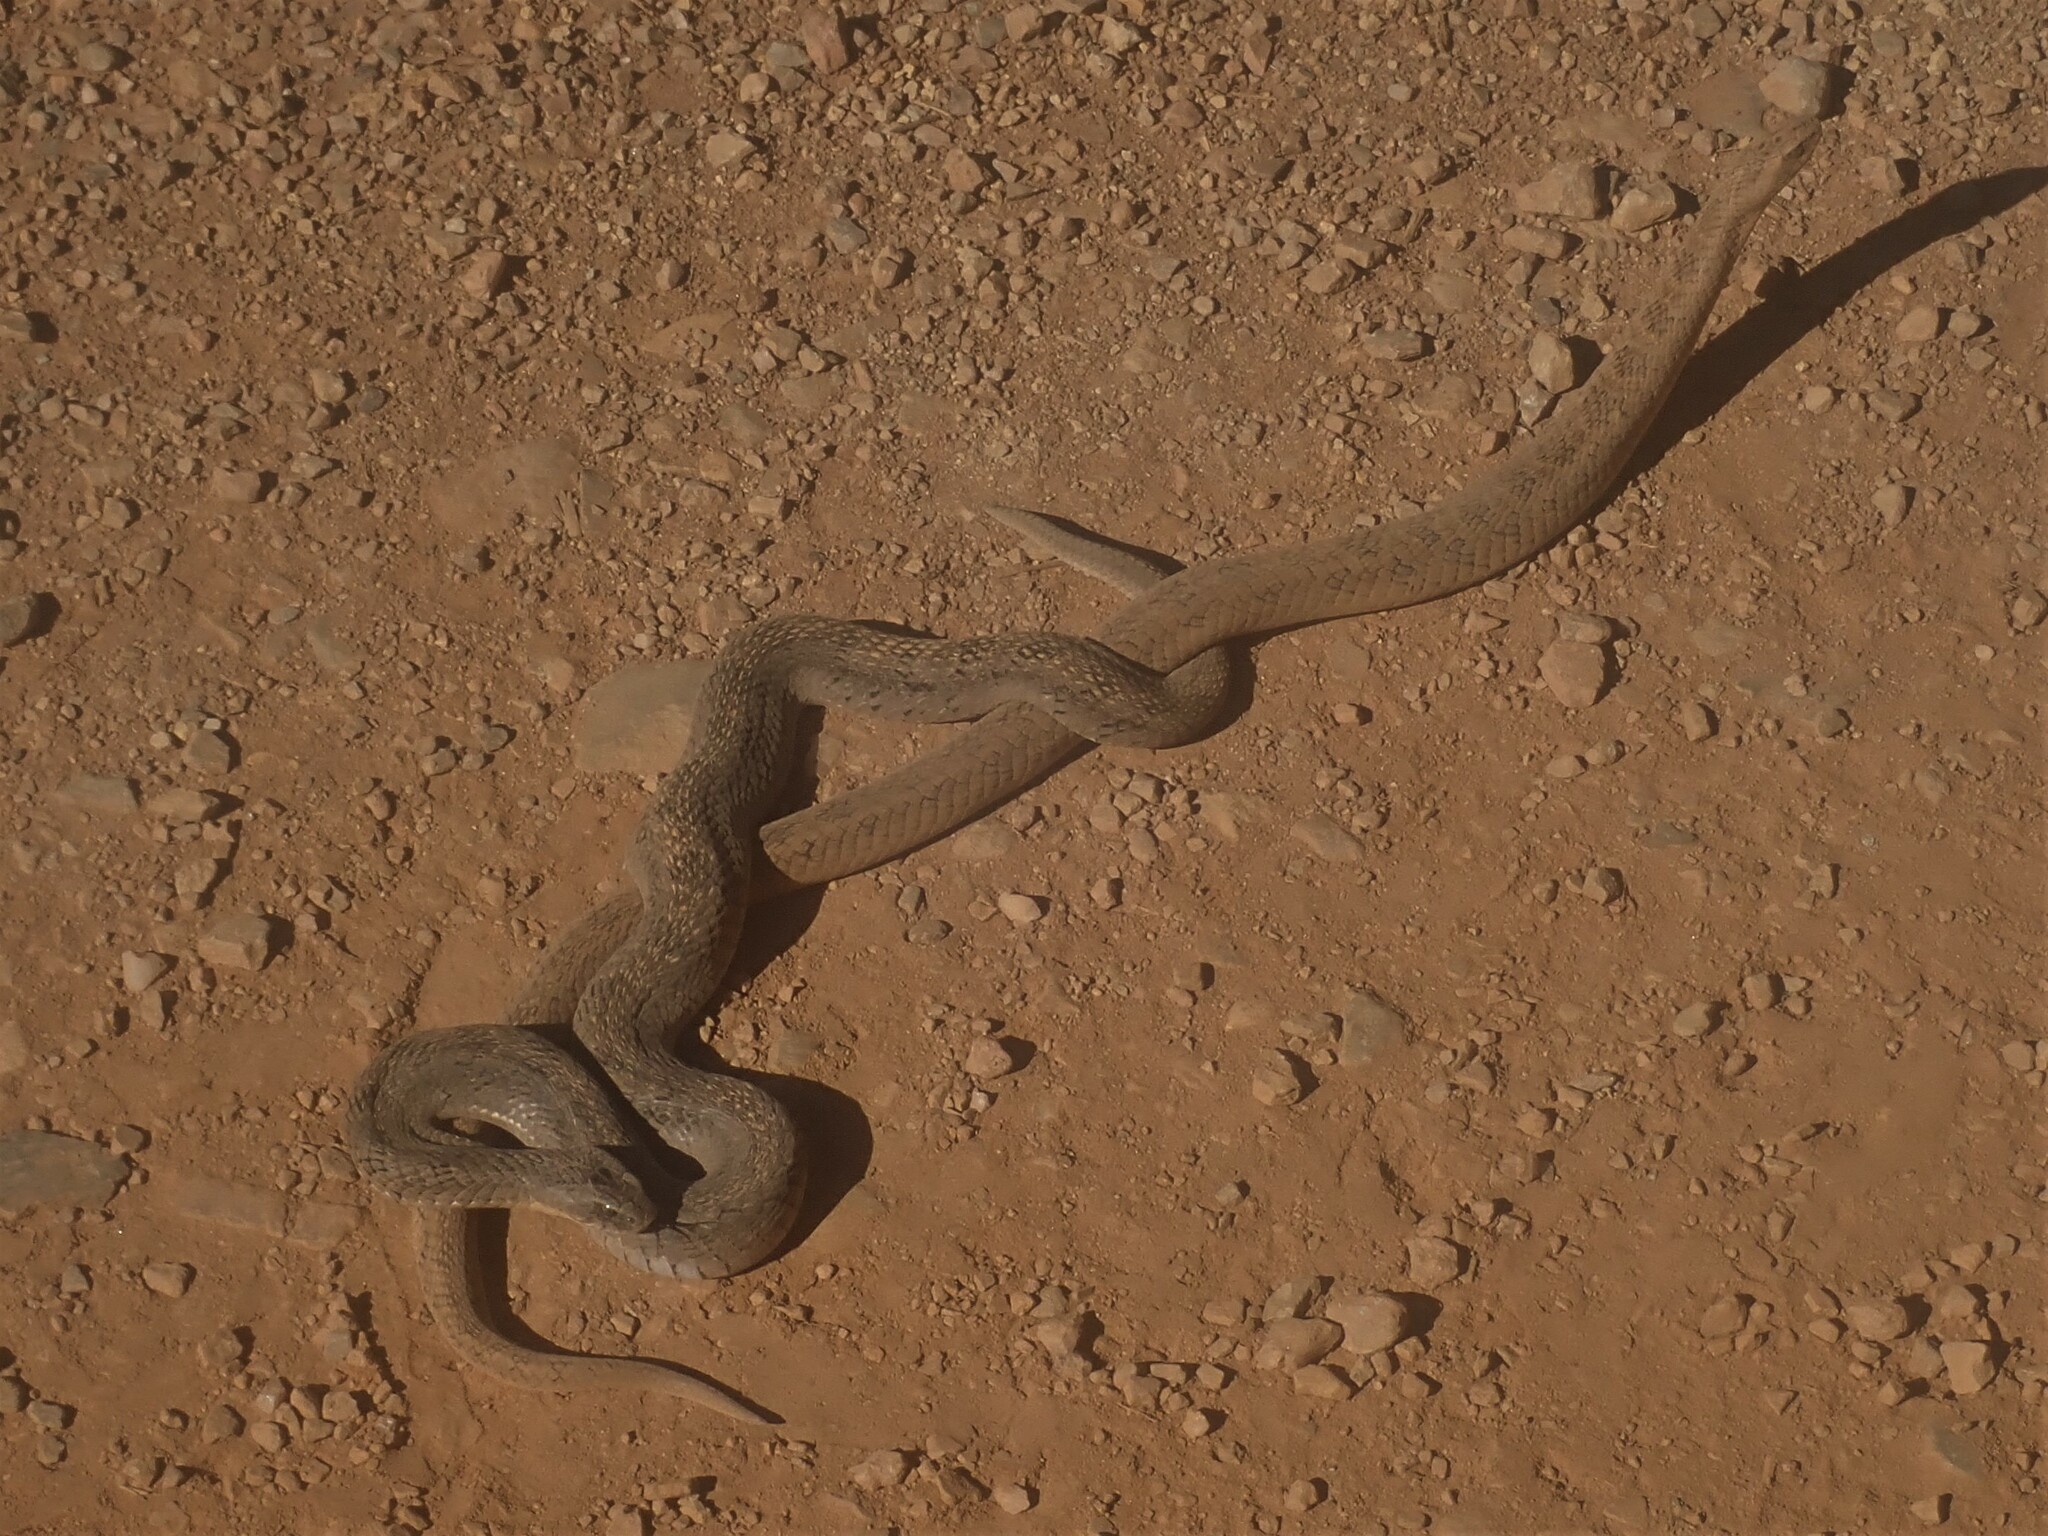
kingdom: Animalia
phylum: Chordata
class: Squamata
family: Viperidae
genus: Causus
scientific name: Causus rhombeatus
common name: Common night adder
